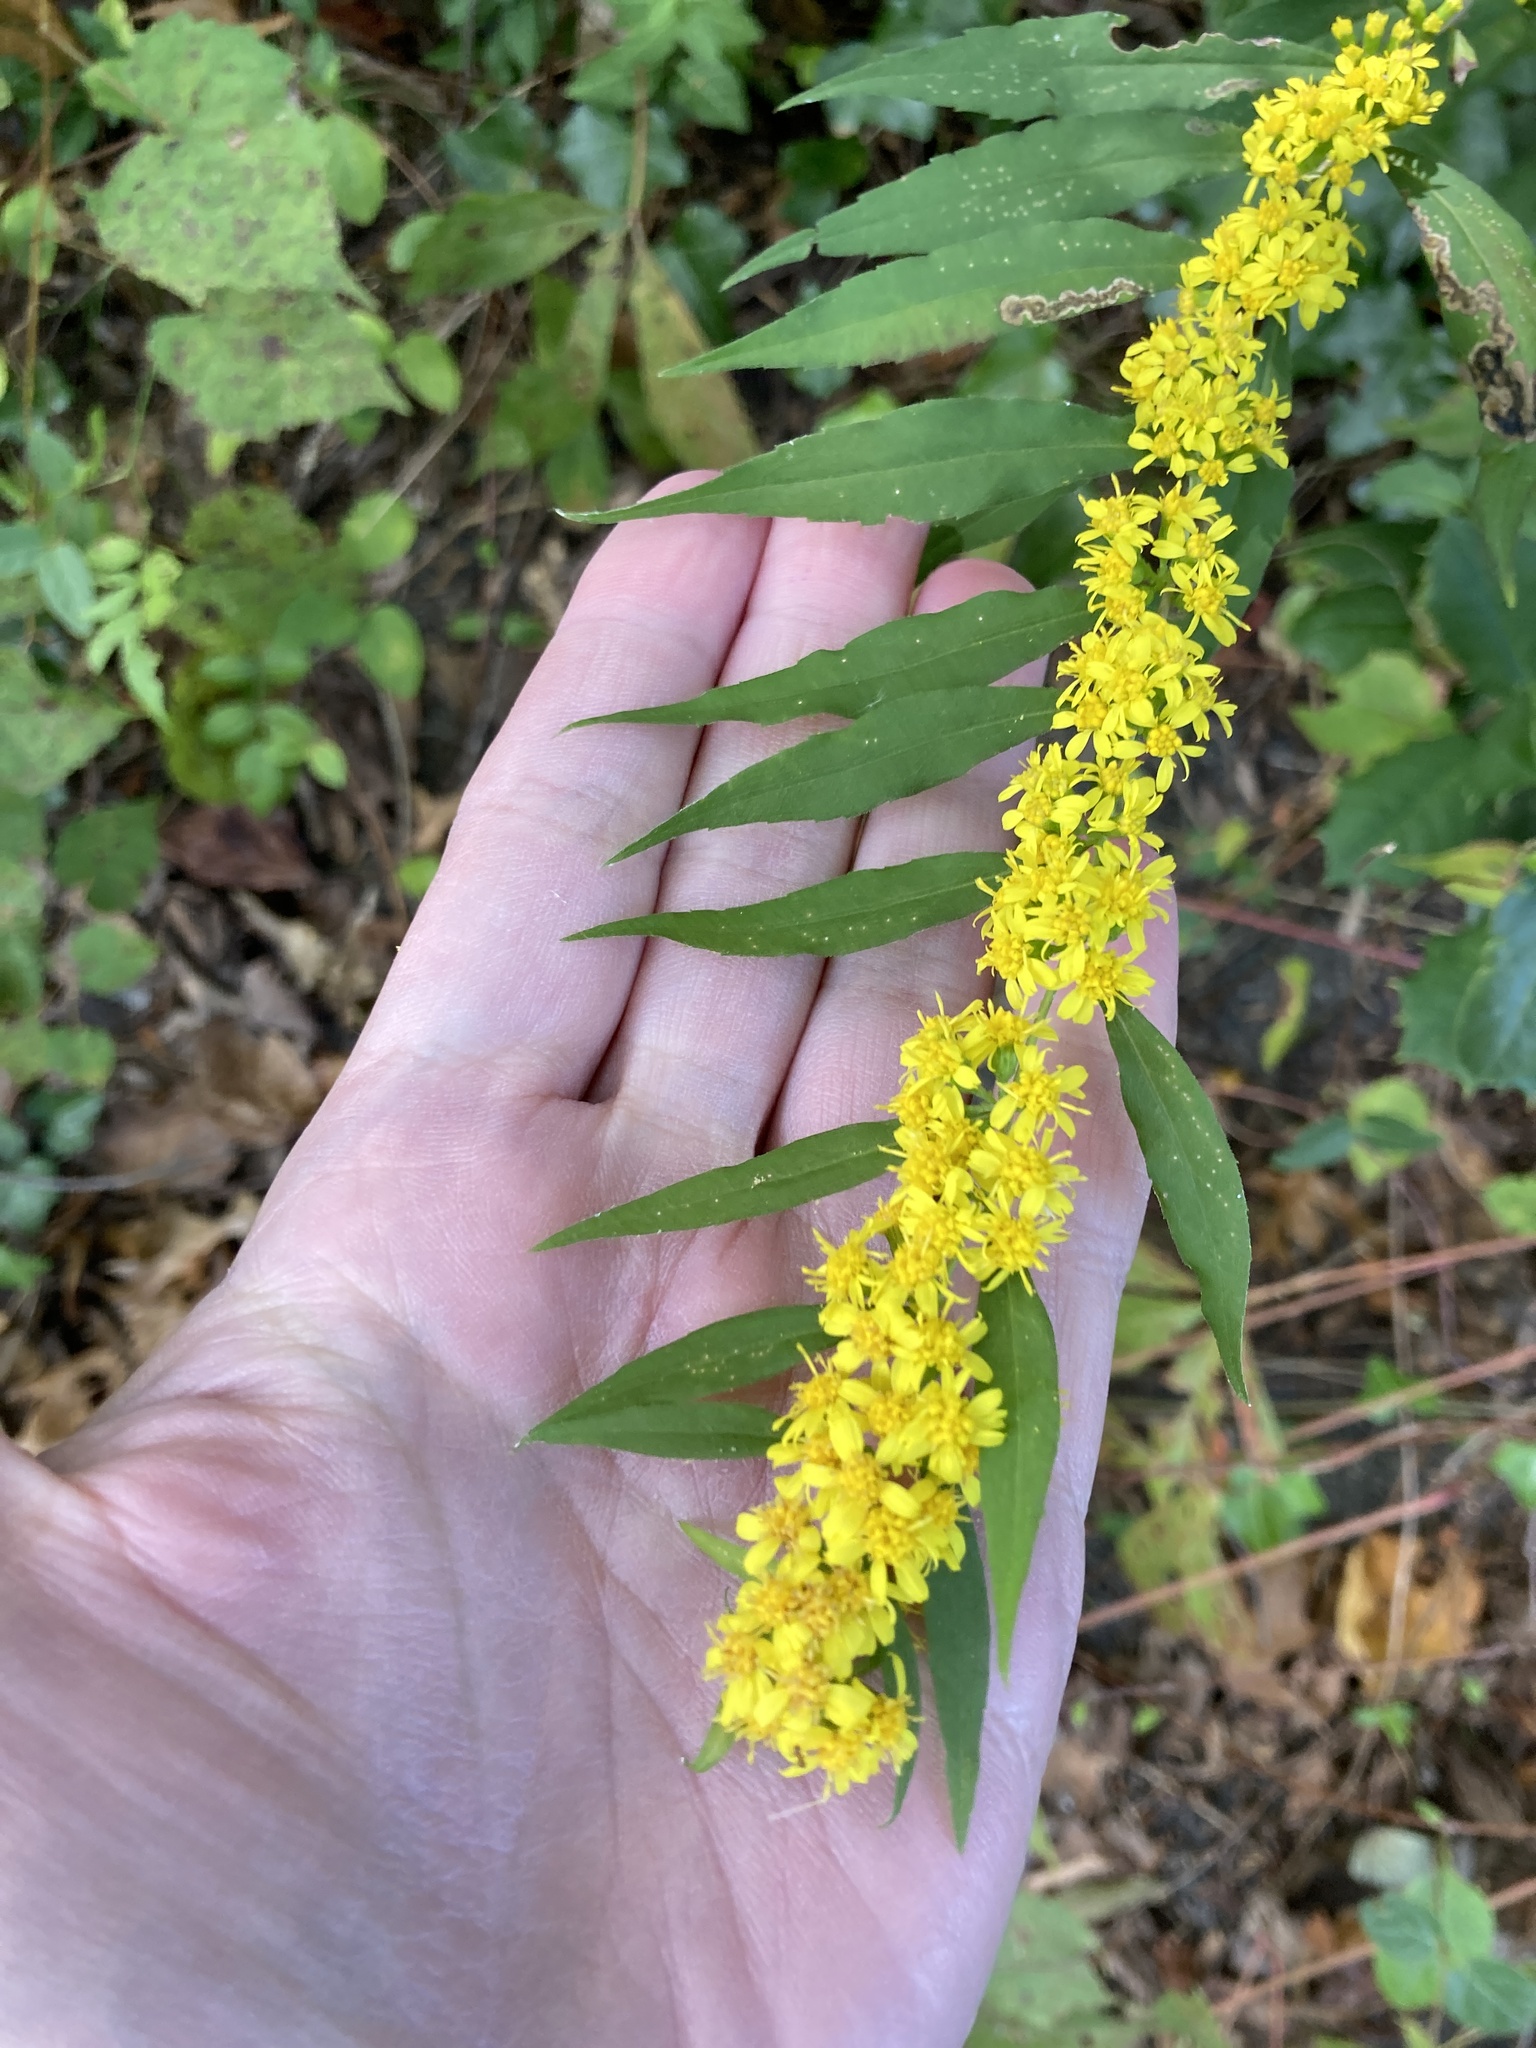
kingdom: Plantae
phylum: Tracheophyta
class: Magnoliopsida
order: Asterales
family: Asteraceae
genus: Solidago
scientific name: Solidago caesia
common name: Woodland goldenrod
